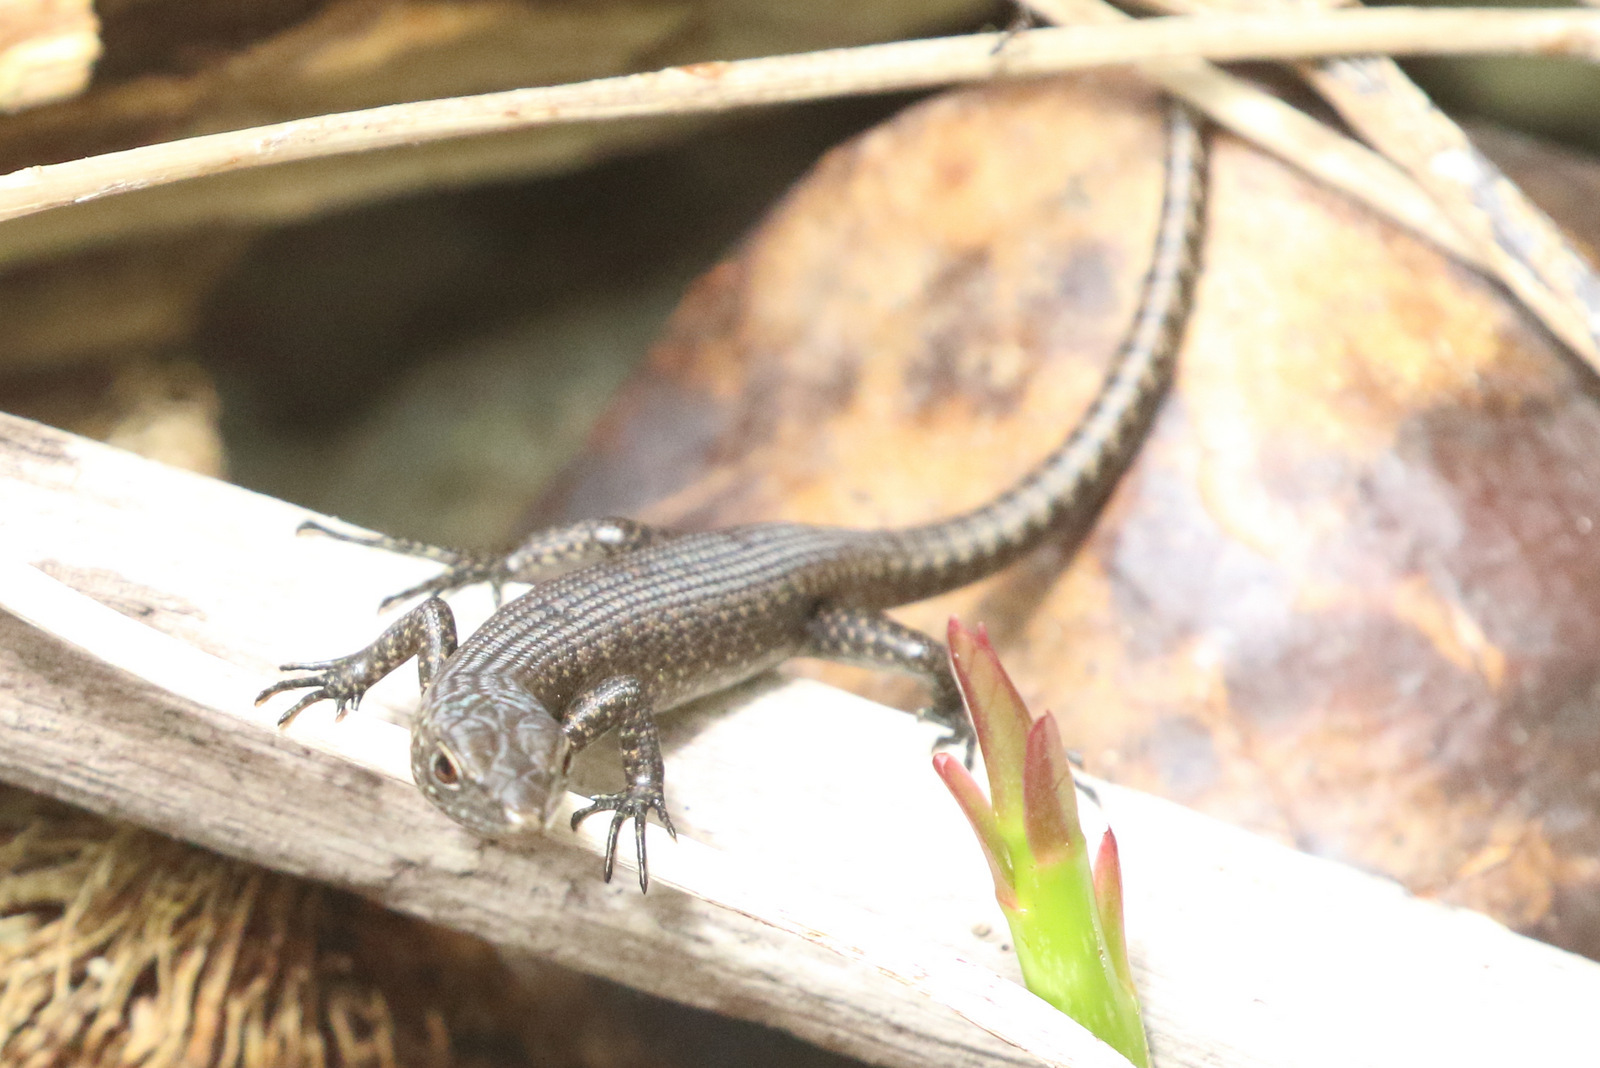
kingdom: Animalia
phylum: Chordata
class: Squamata
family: Scincidae
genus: Emoia
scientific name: Emoia nigra
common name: Black emo skink
